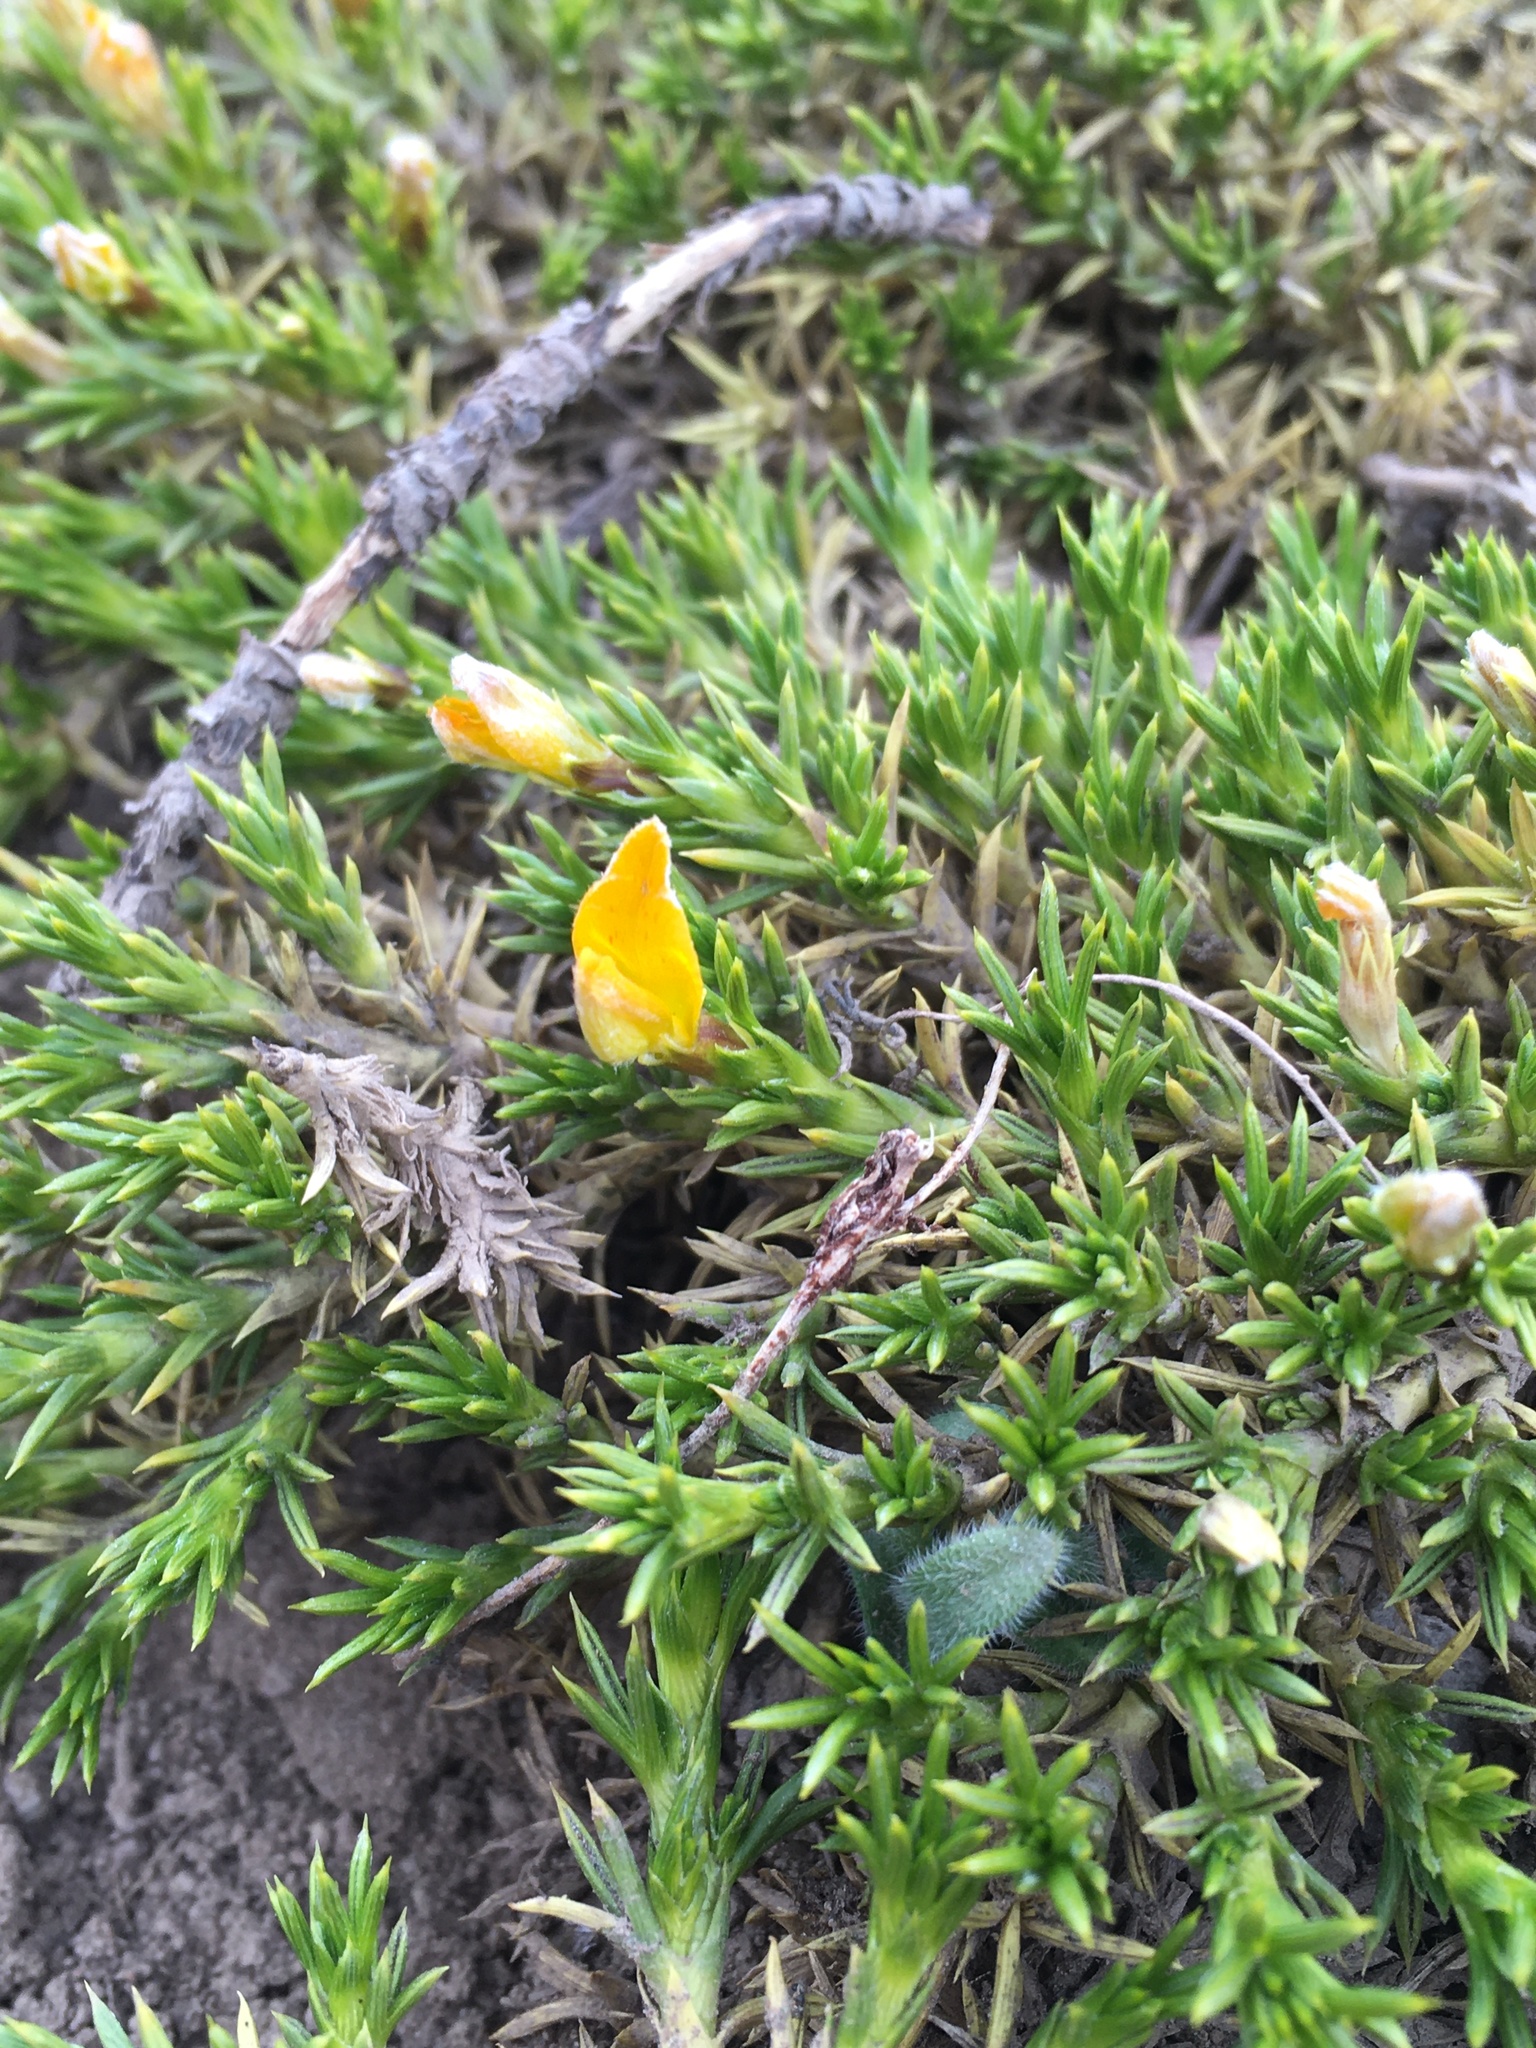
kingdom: Plantae
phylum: Tracheophyta
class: Magnoliopsida
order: Fabales
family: Fabaceae
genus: Anarthrophyllum
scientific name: Anarthrophyllum gayanum
